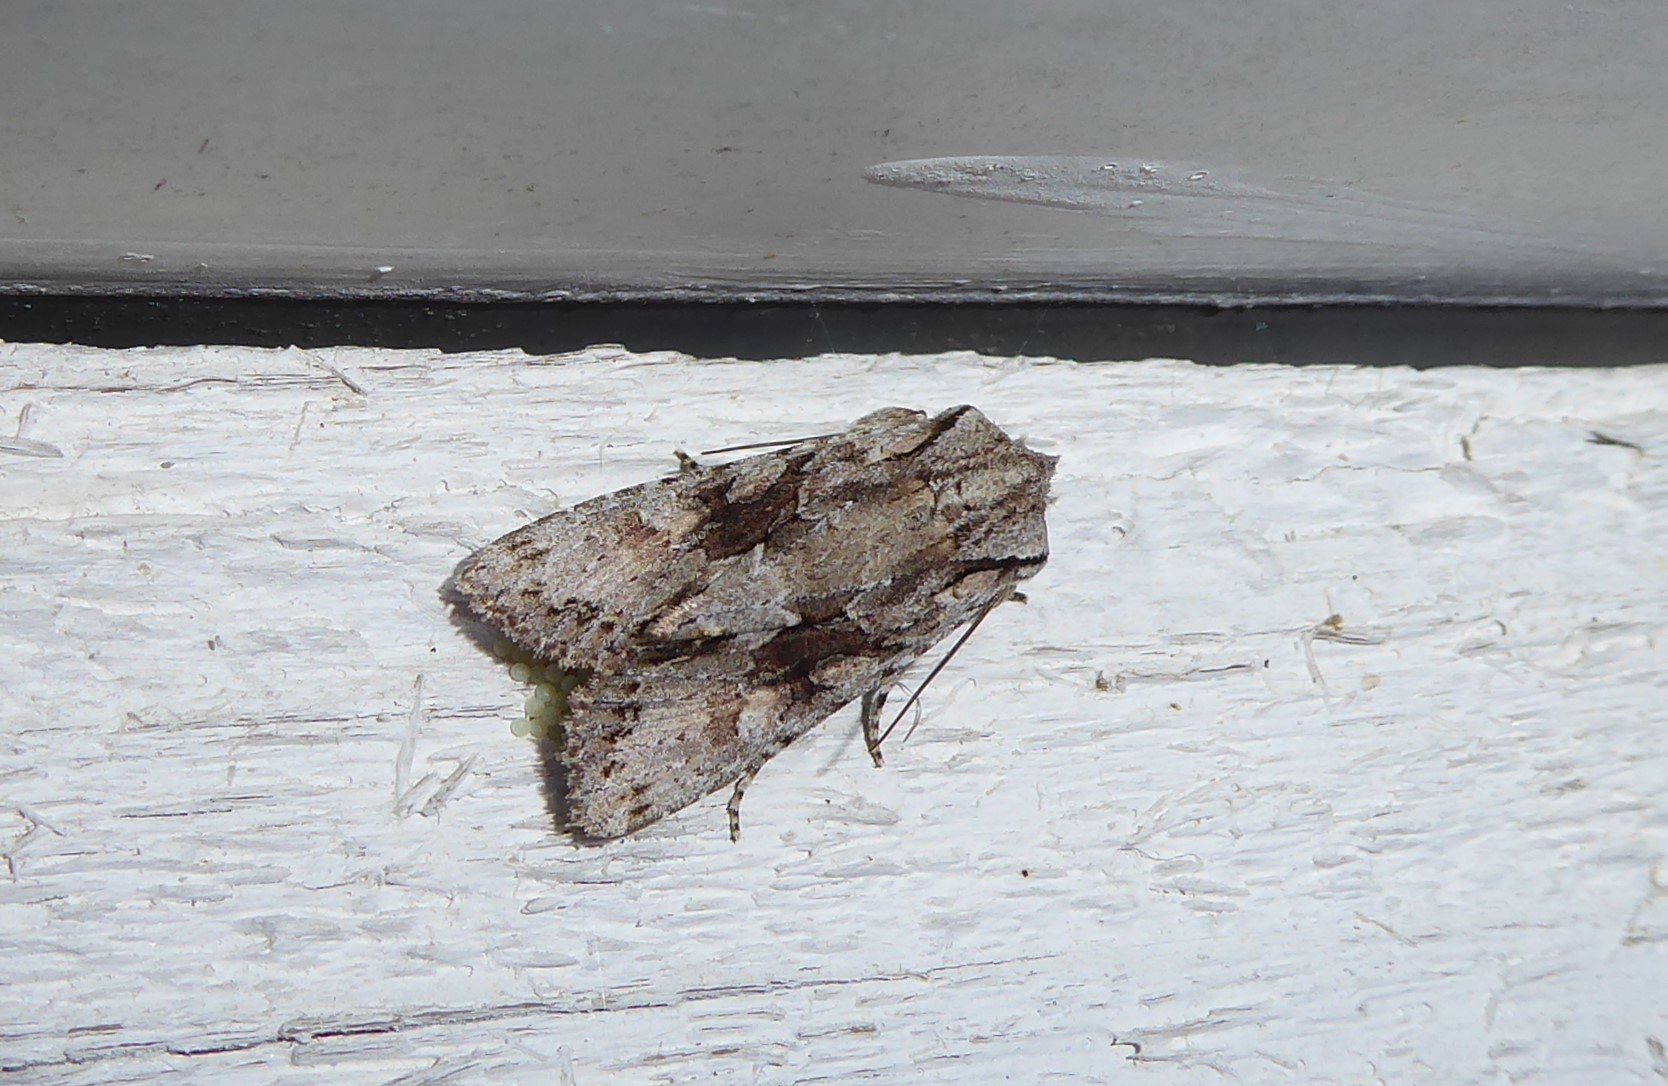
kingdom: Animalia
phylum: Arthropoda
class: Insecta
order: Lepidoptera
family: Noctuidae
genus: Ichneutica
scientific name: Ichneutica mutans
